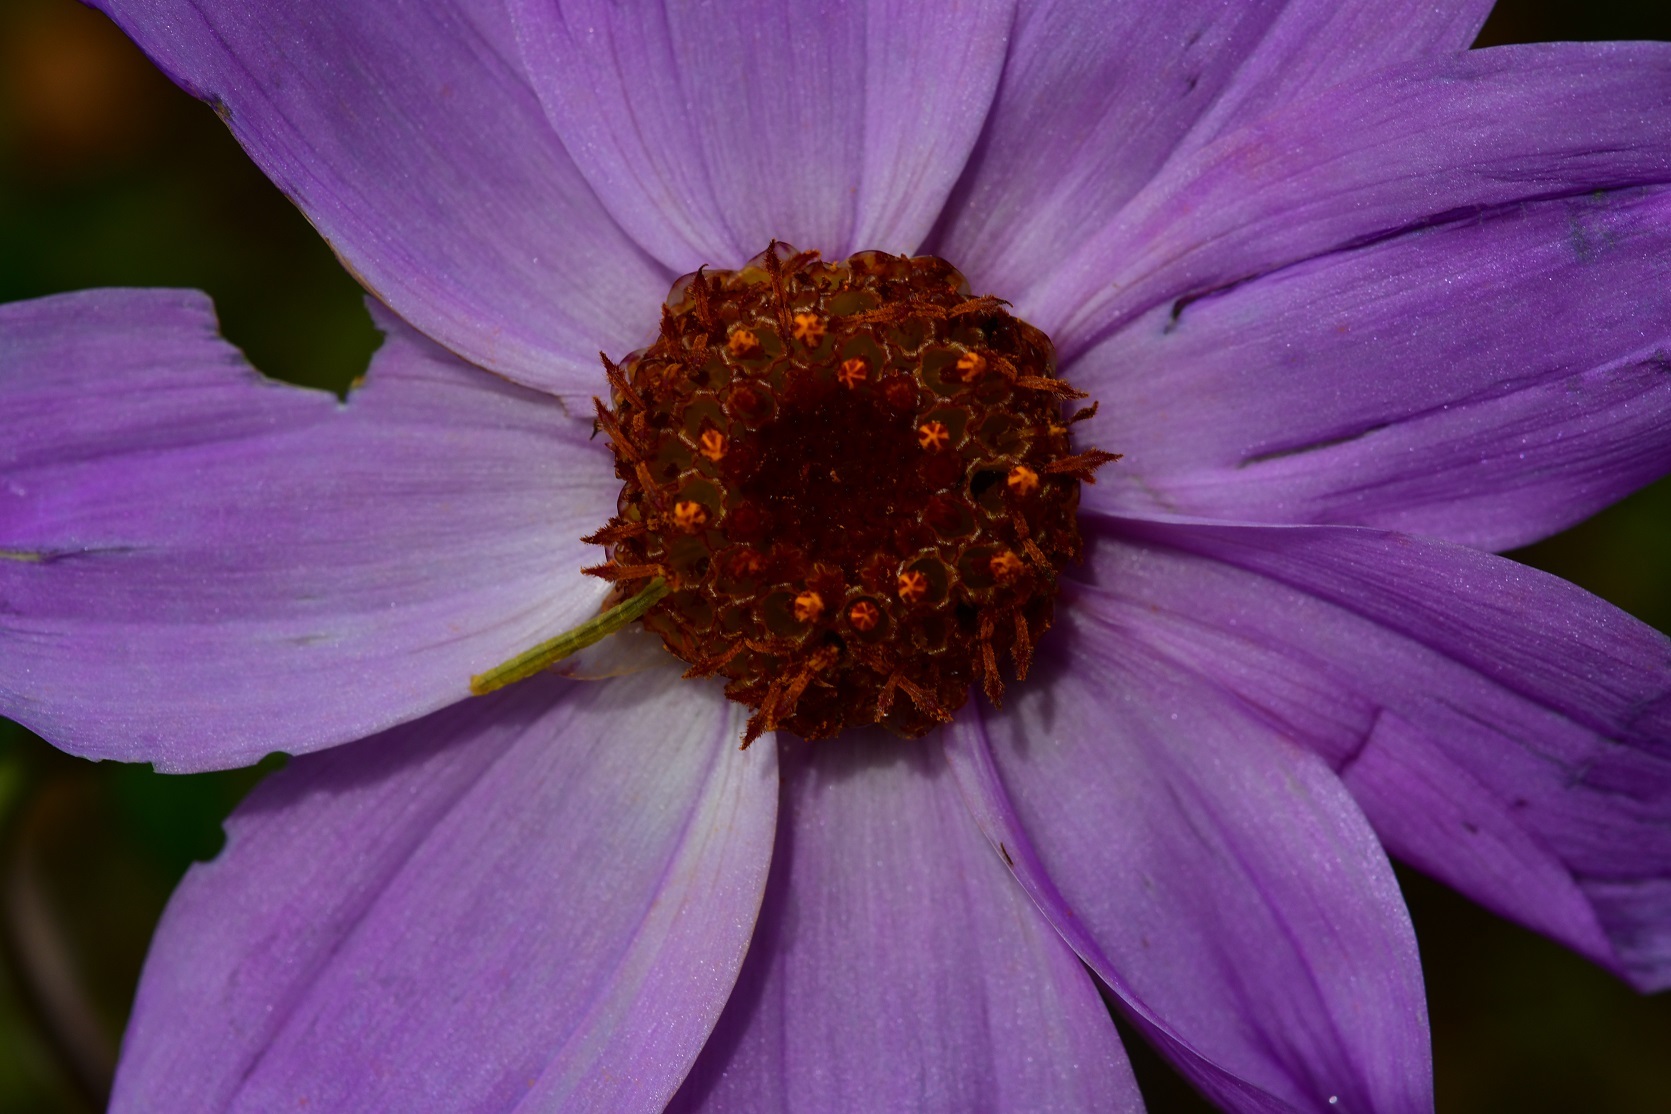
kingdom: Plantae
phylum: Tracheophyta
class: Magnoliopsida
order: Asterales
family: Asteraceae
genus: Dahlia
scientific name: Dahlia imperialis
